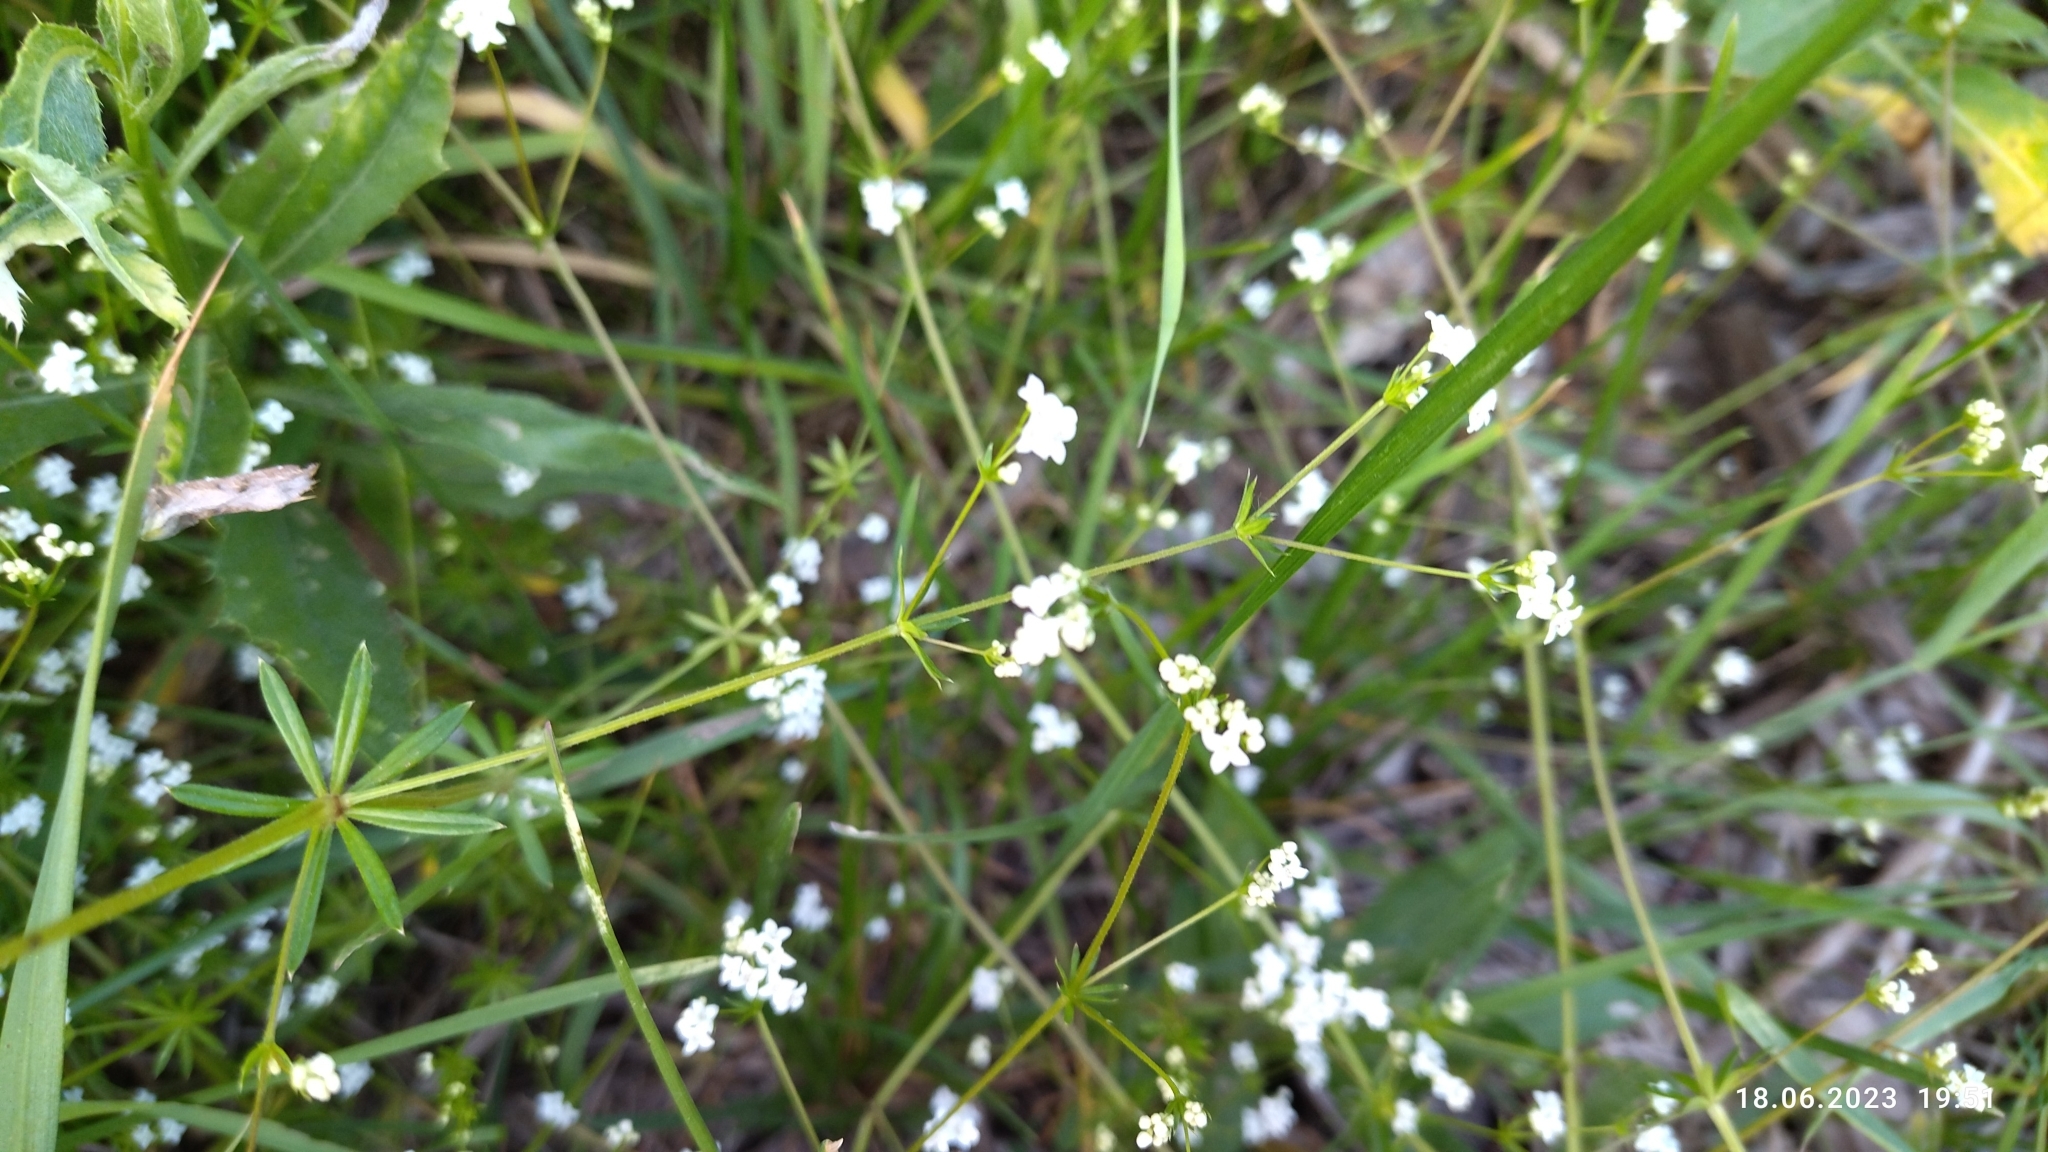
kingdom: Plantae
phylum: Tracheophyta
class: Magnoliopsida
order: Gentianales
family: Rubiaceae
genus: Galium
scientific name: Galium uliginosum
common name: Fen bedstraw
